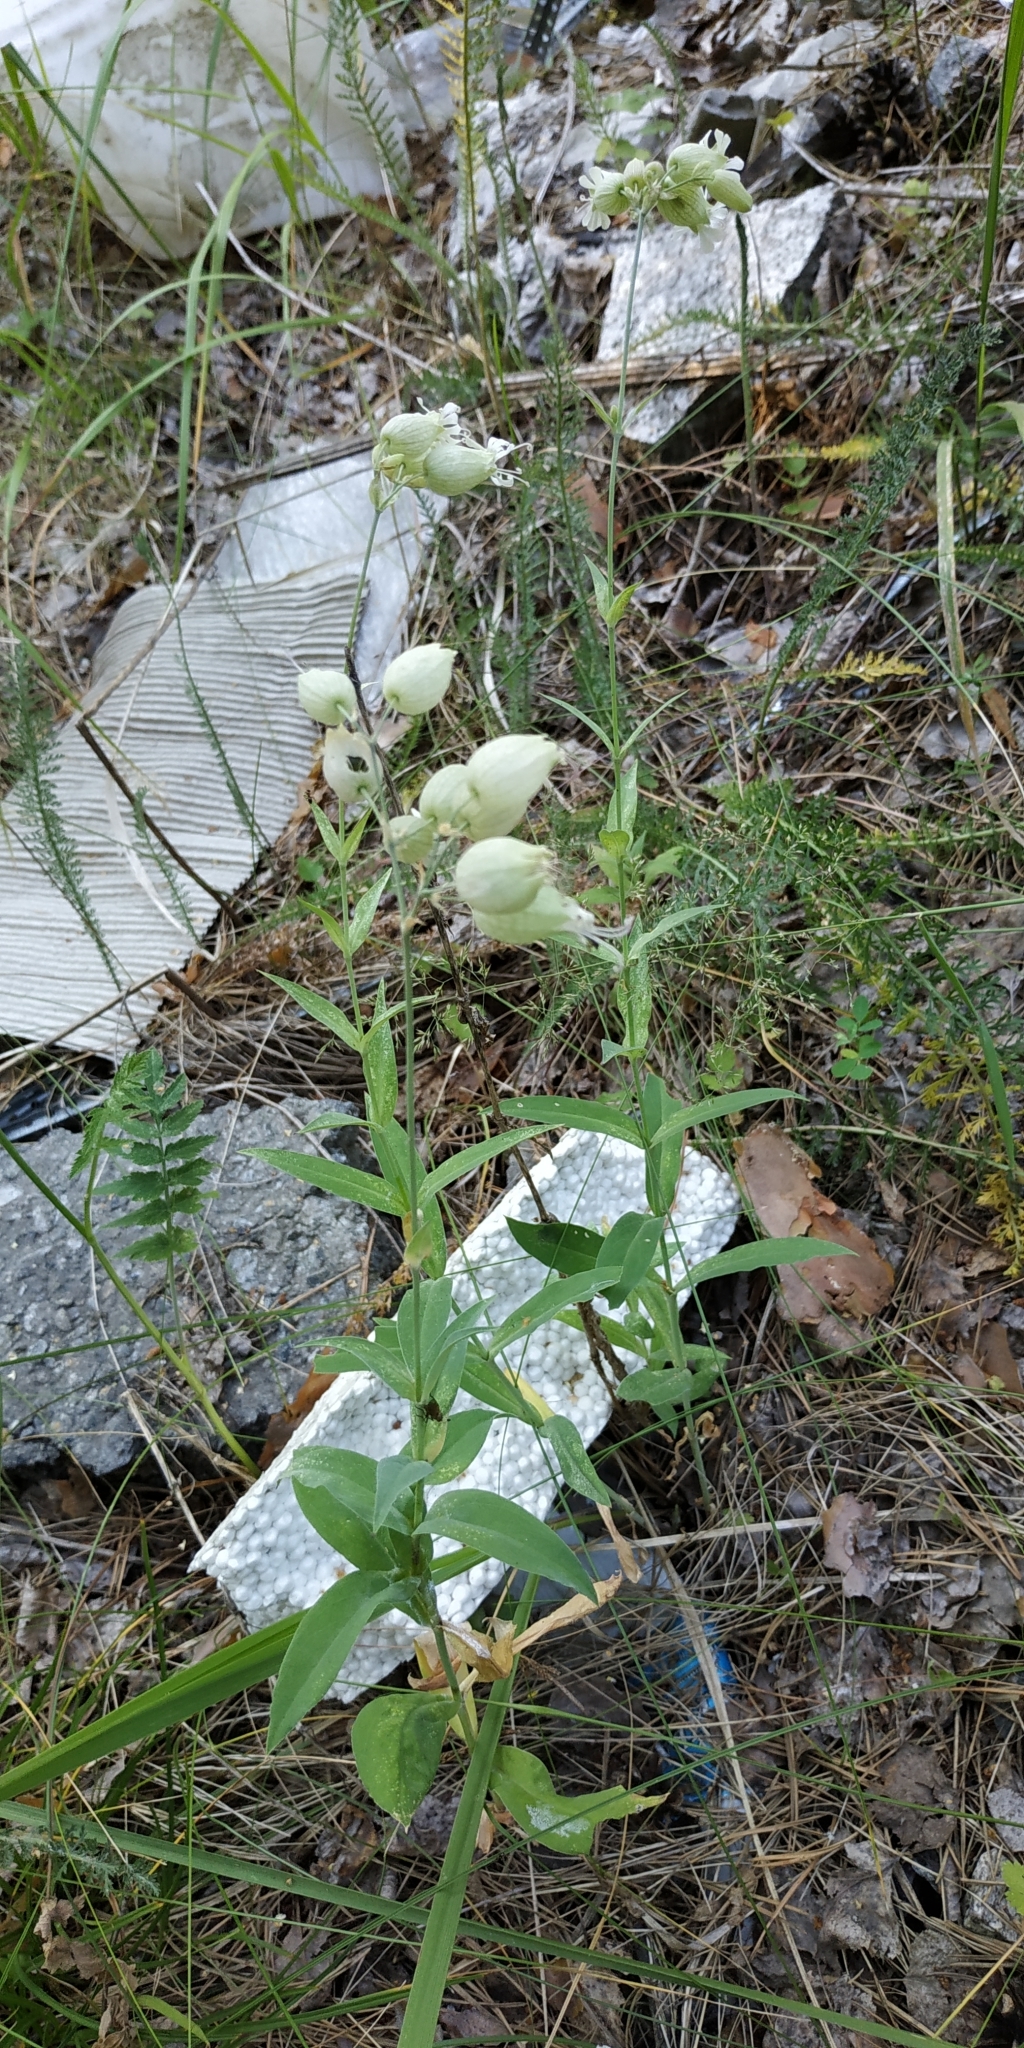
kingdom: Plantae
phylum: Tracheophyta
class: Magnoliopsida
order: Caryophyllales
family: Caryophyllaceae
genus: Silene
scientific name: Silene vulgaris
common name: Bladder campion
